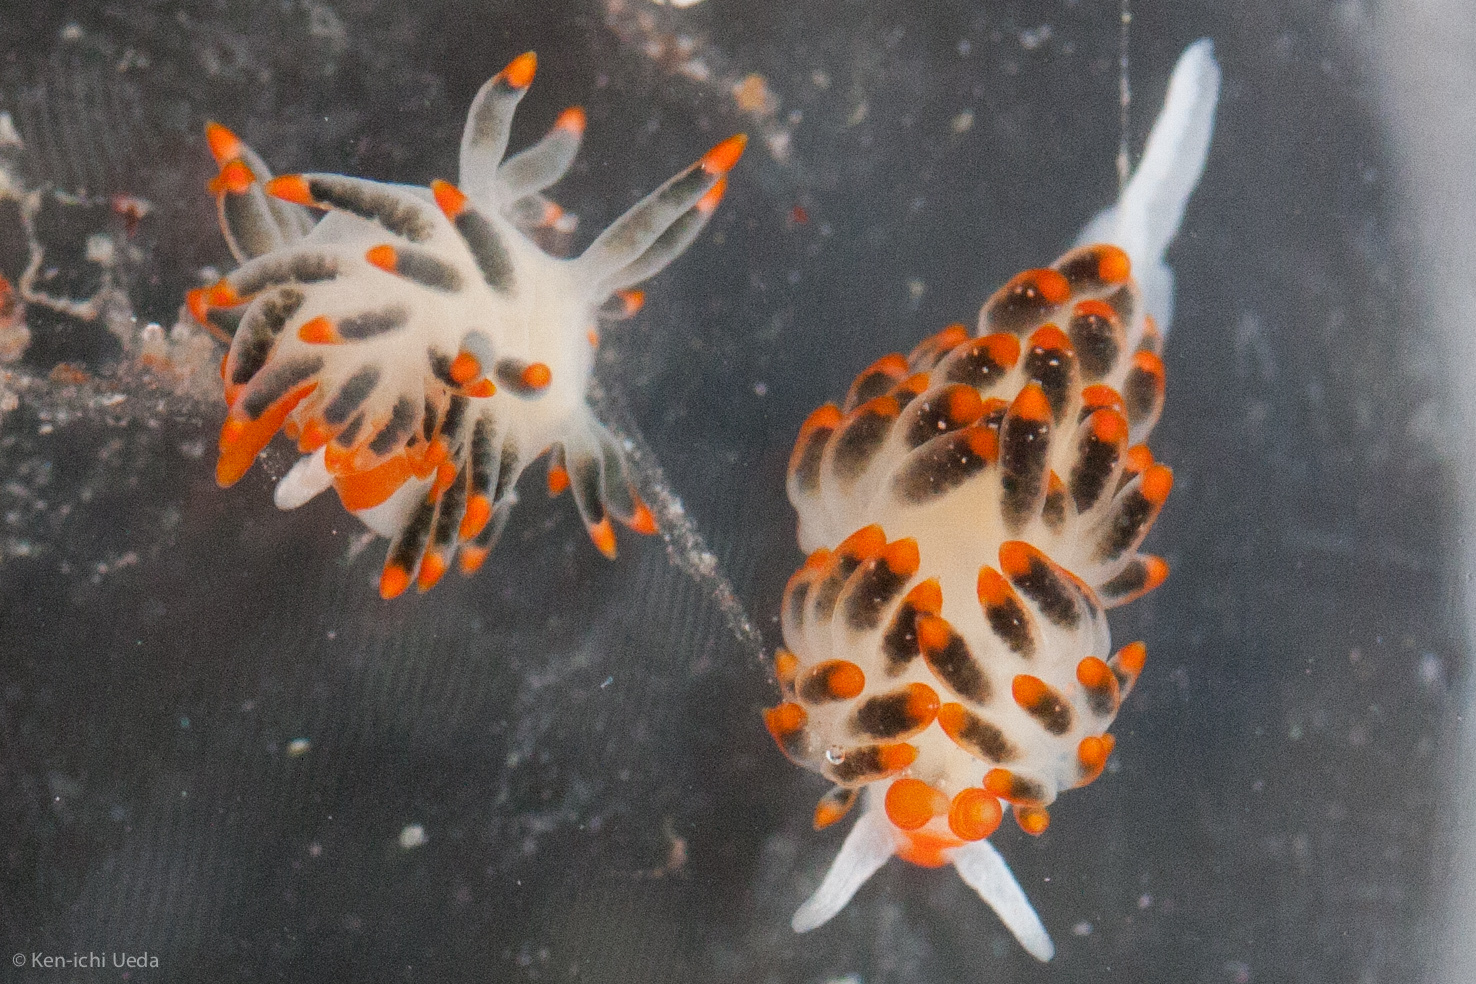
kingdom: Animalia
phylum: Mollusca
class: Gastropoda
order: Nudibranchia
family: Trinchesiidae
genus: Diaphoreolis
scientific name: Diaphoreolis lagunae
